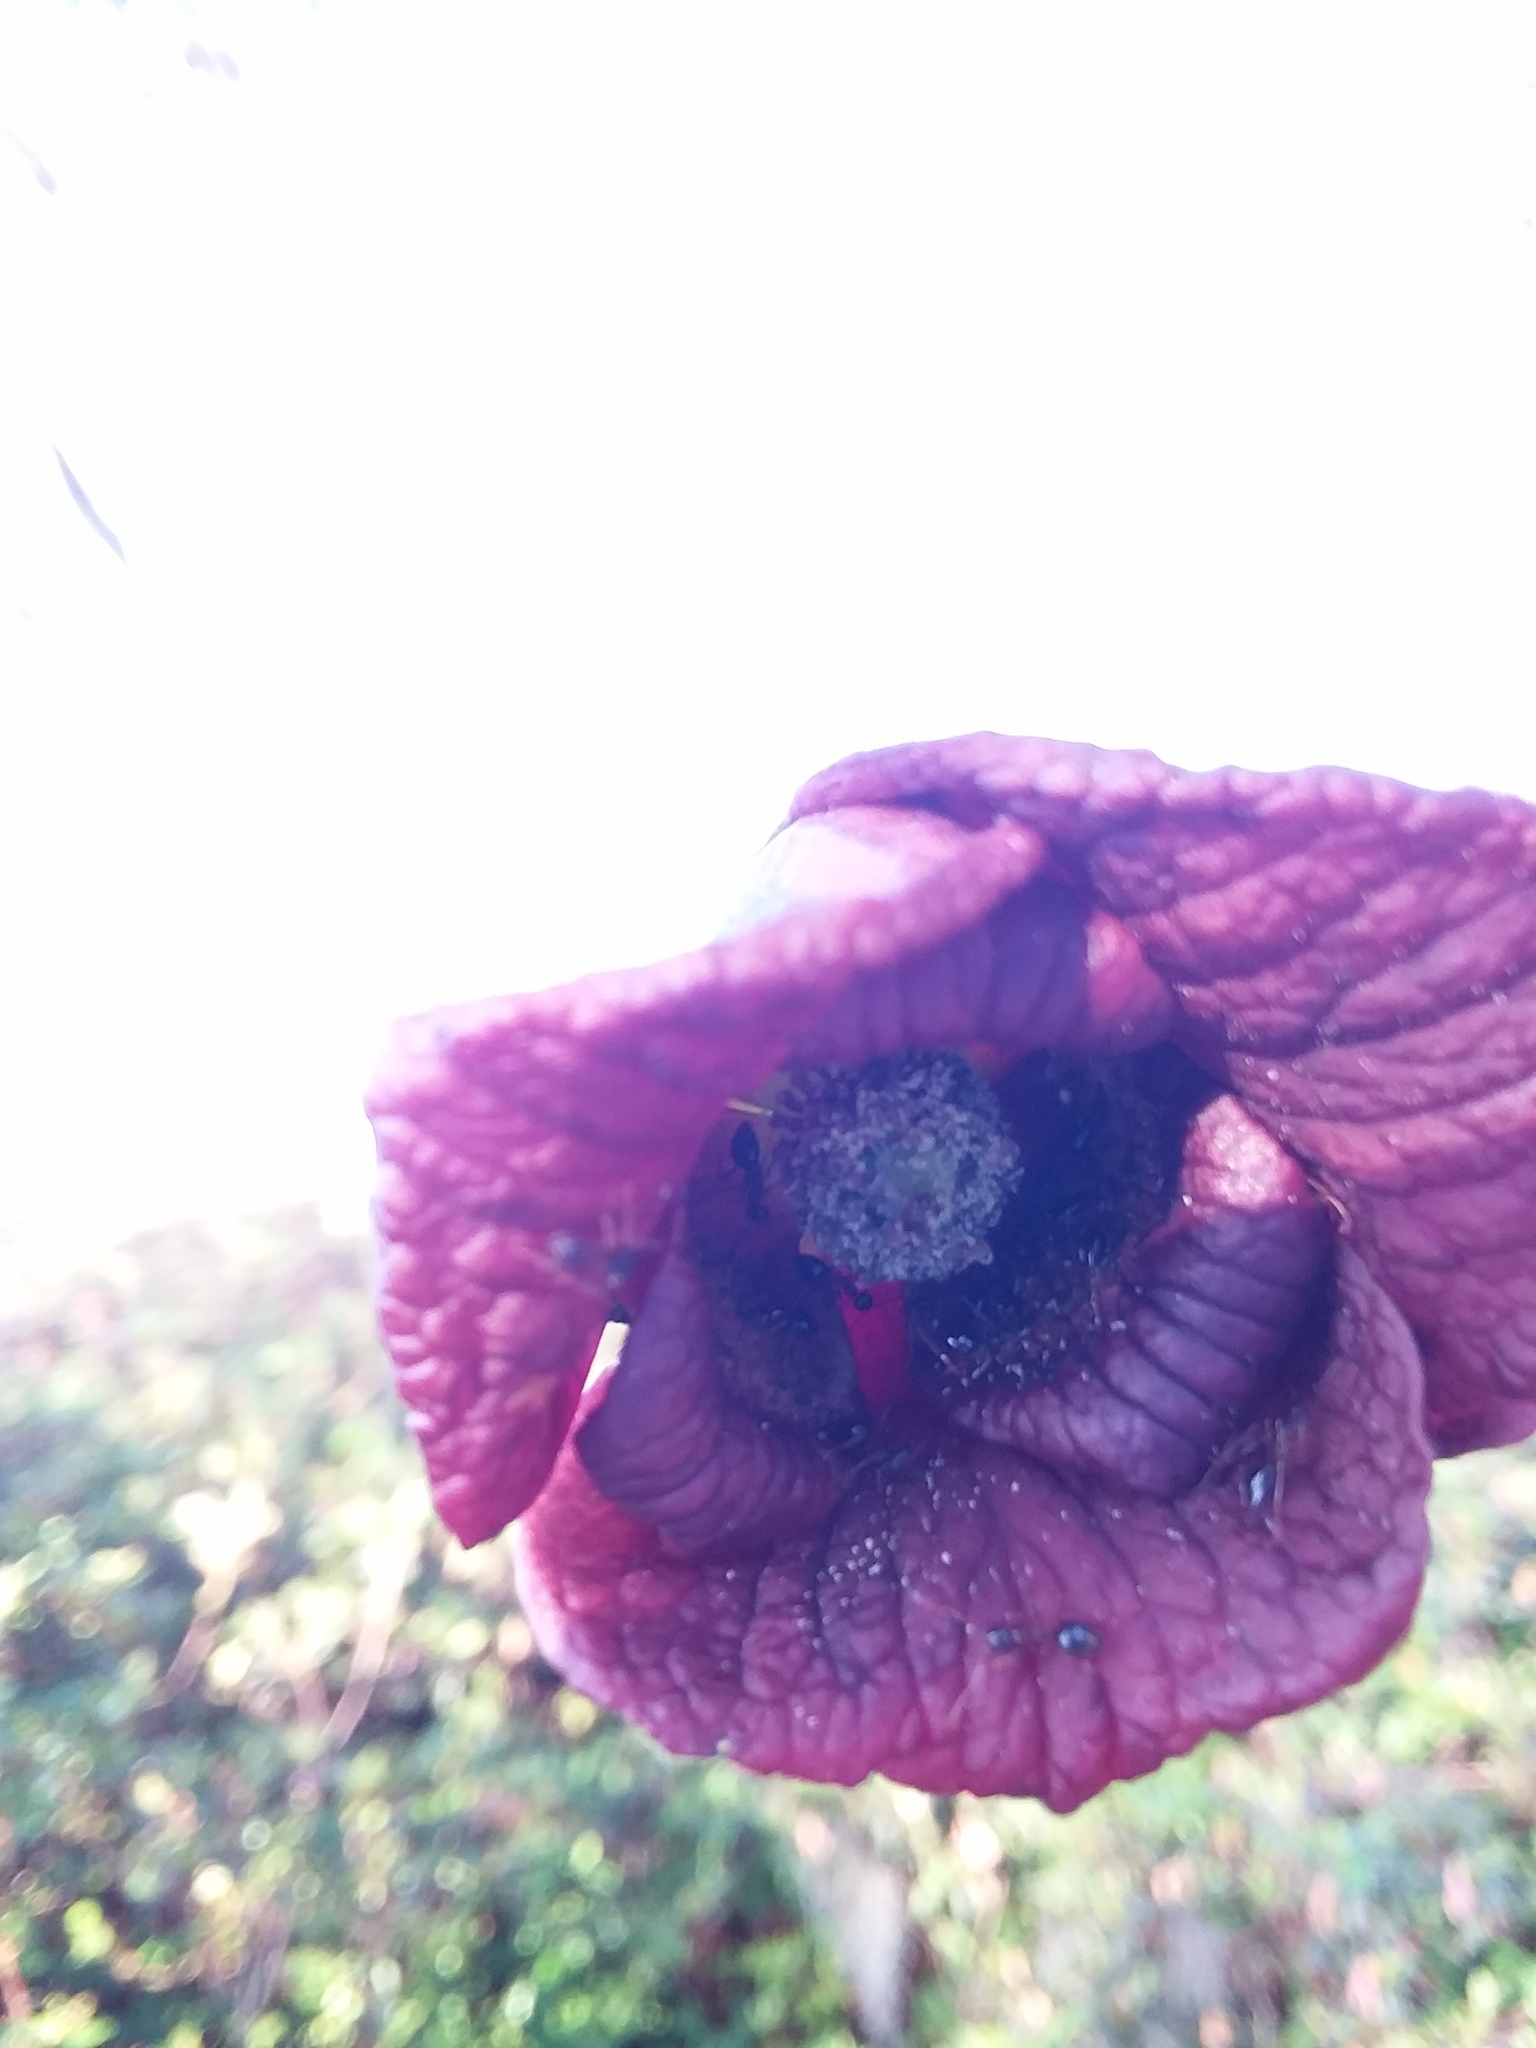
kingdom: Animalia
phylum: Arthropoda
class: Insecta
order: Hymenoptera
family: Formicidae
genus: Prenolepis
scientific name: Prenolepis imparis
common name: Small honey ant
